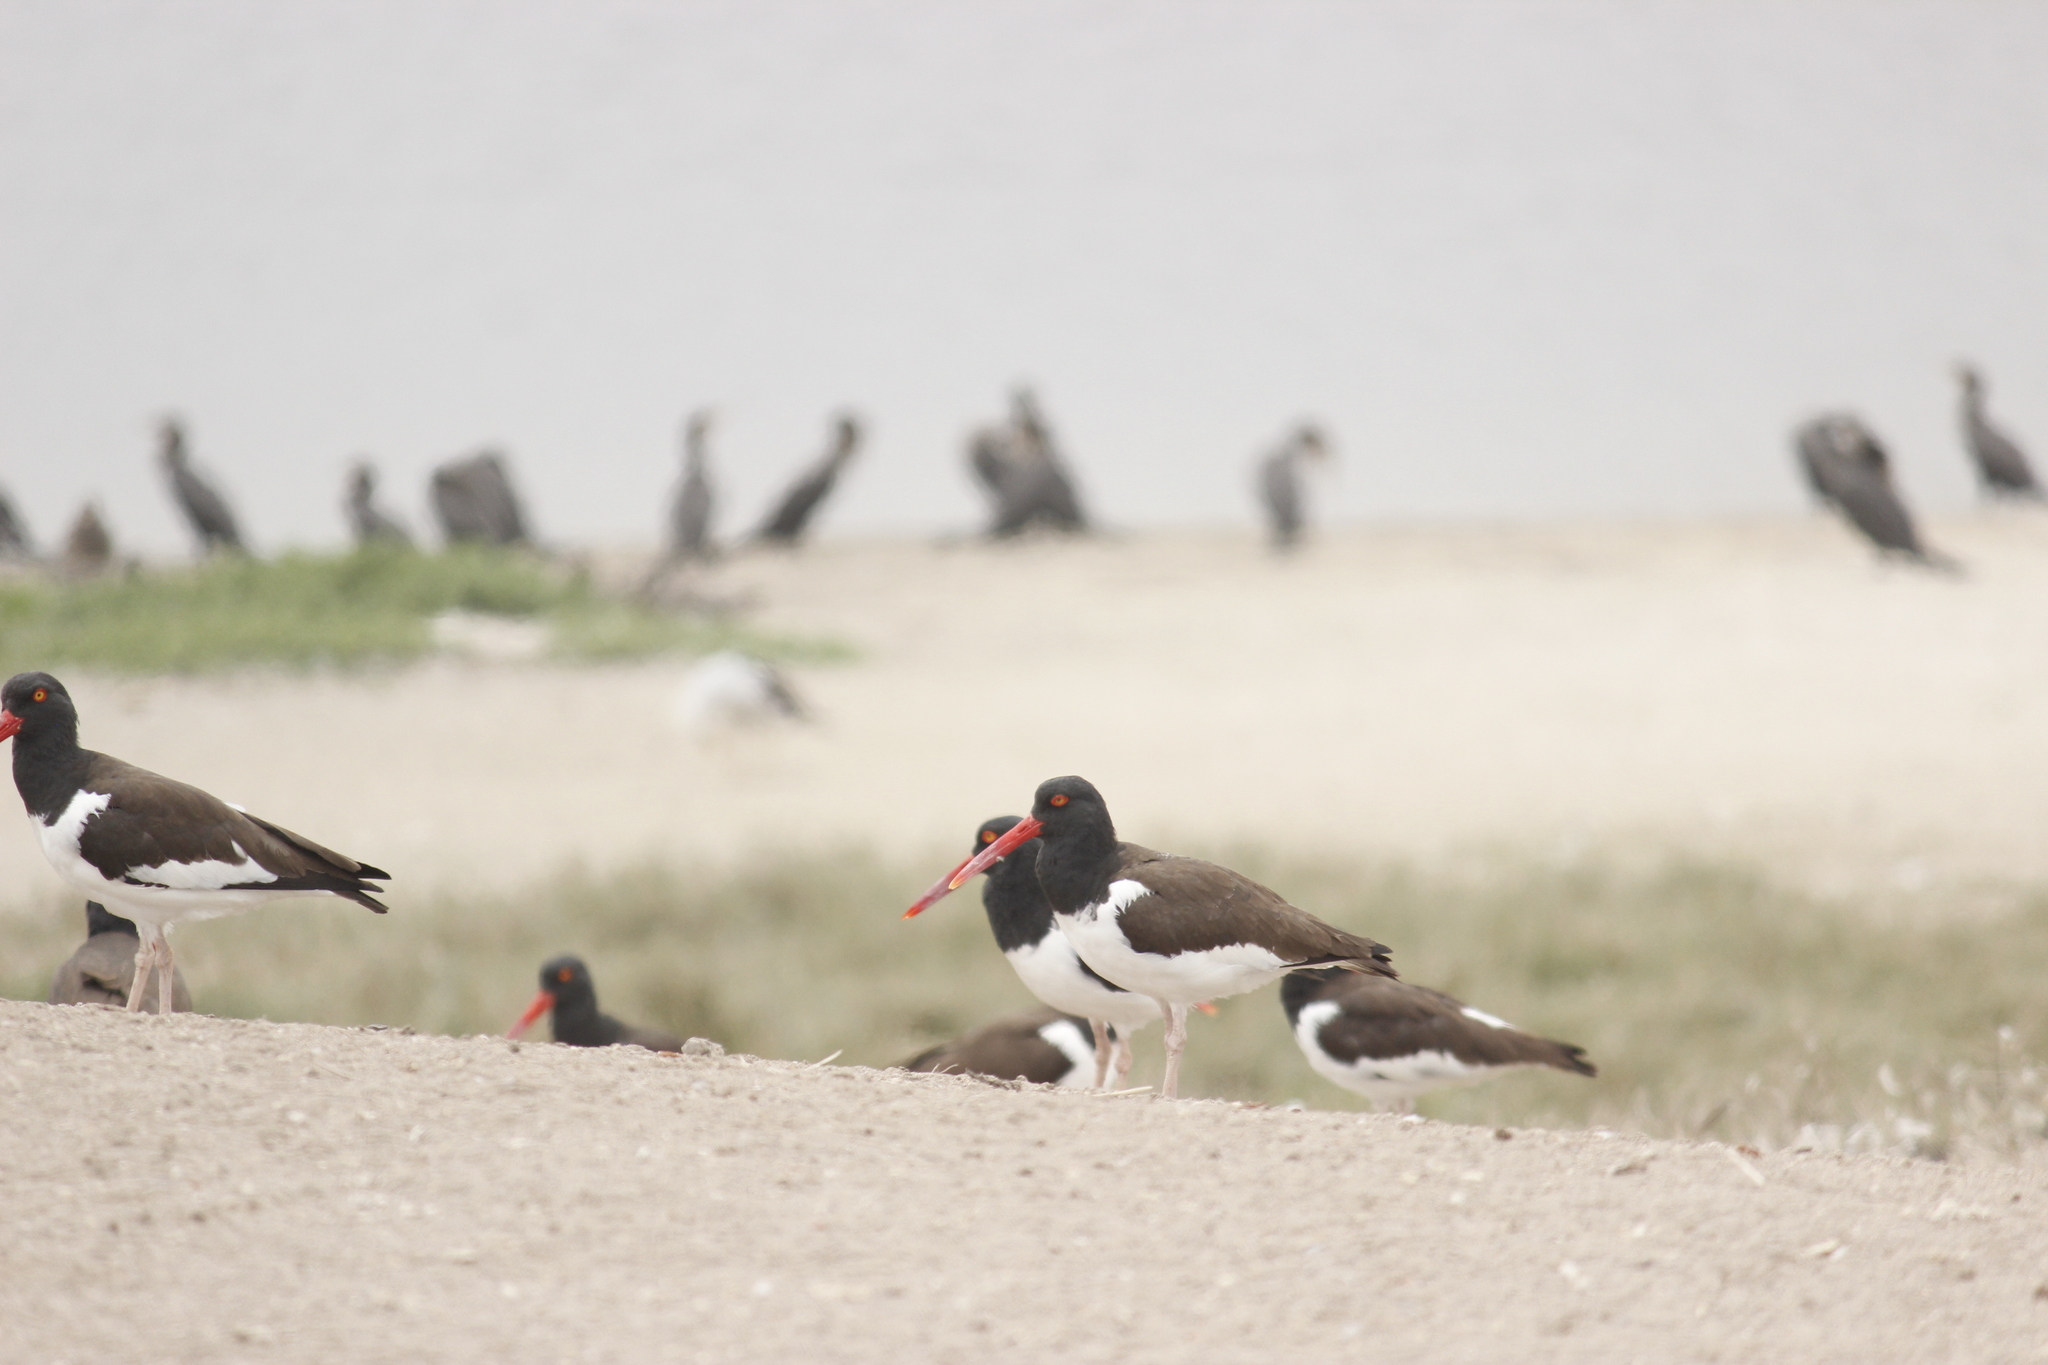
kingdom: Animalia
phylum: Chordata
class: Aves
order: Charadriiformes
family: Haematopodidae
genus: Haematopus
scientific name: Haematopus palliatus
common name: American oystercatcher
